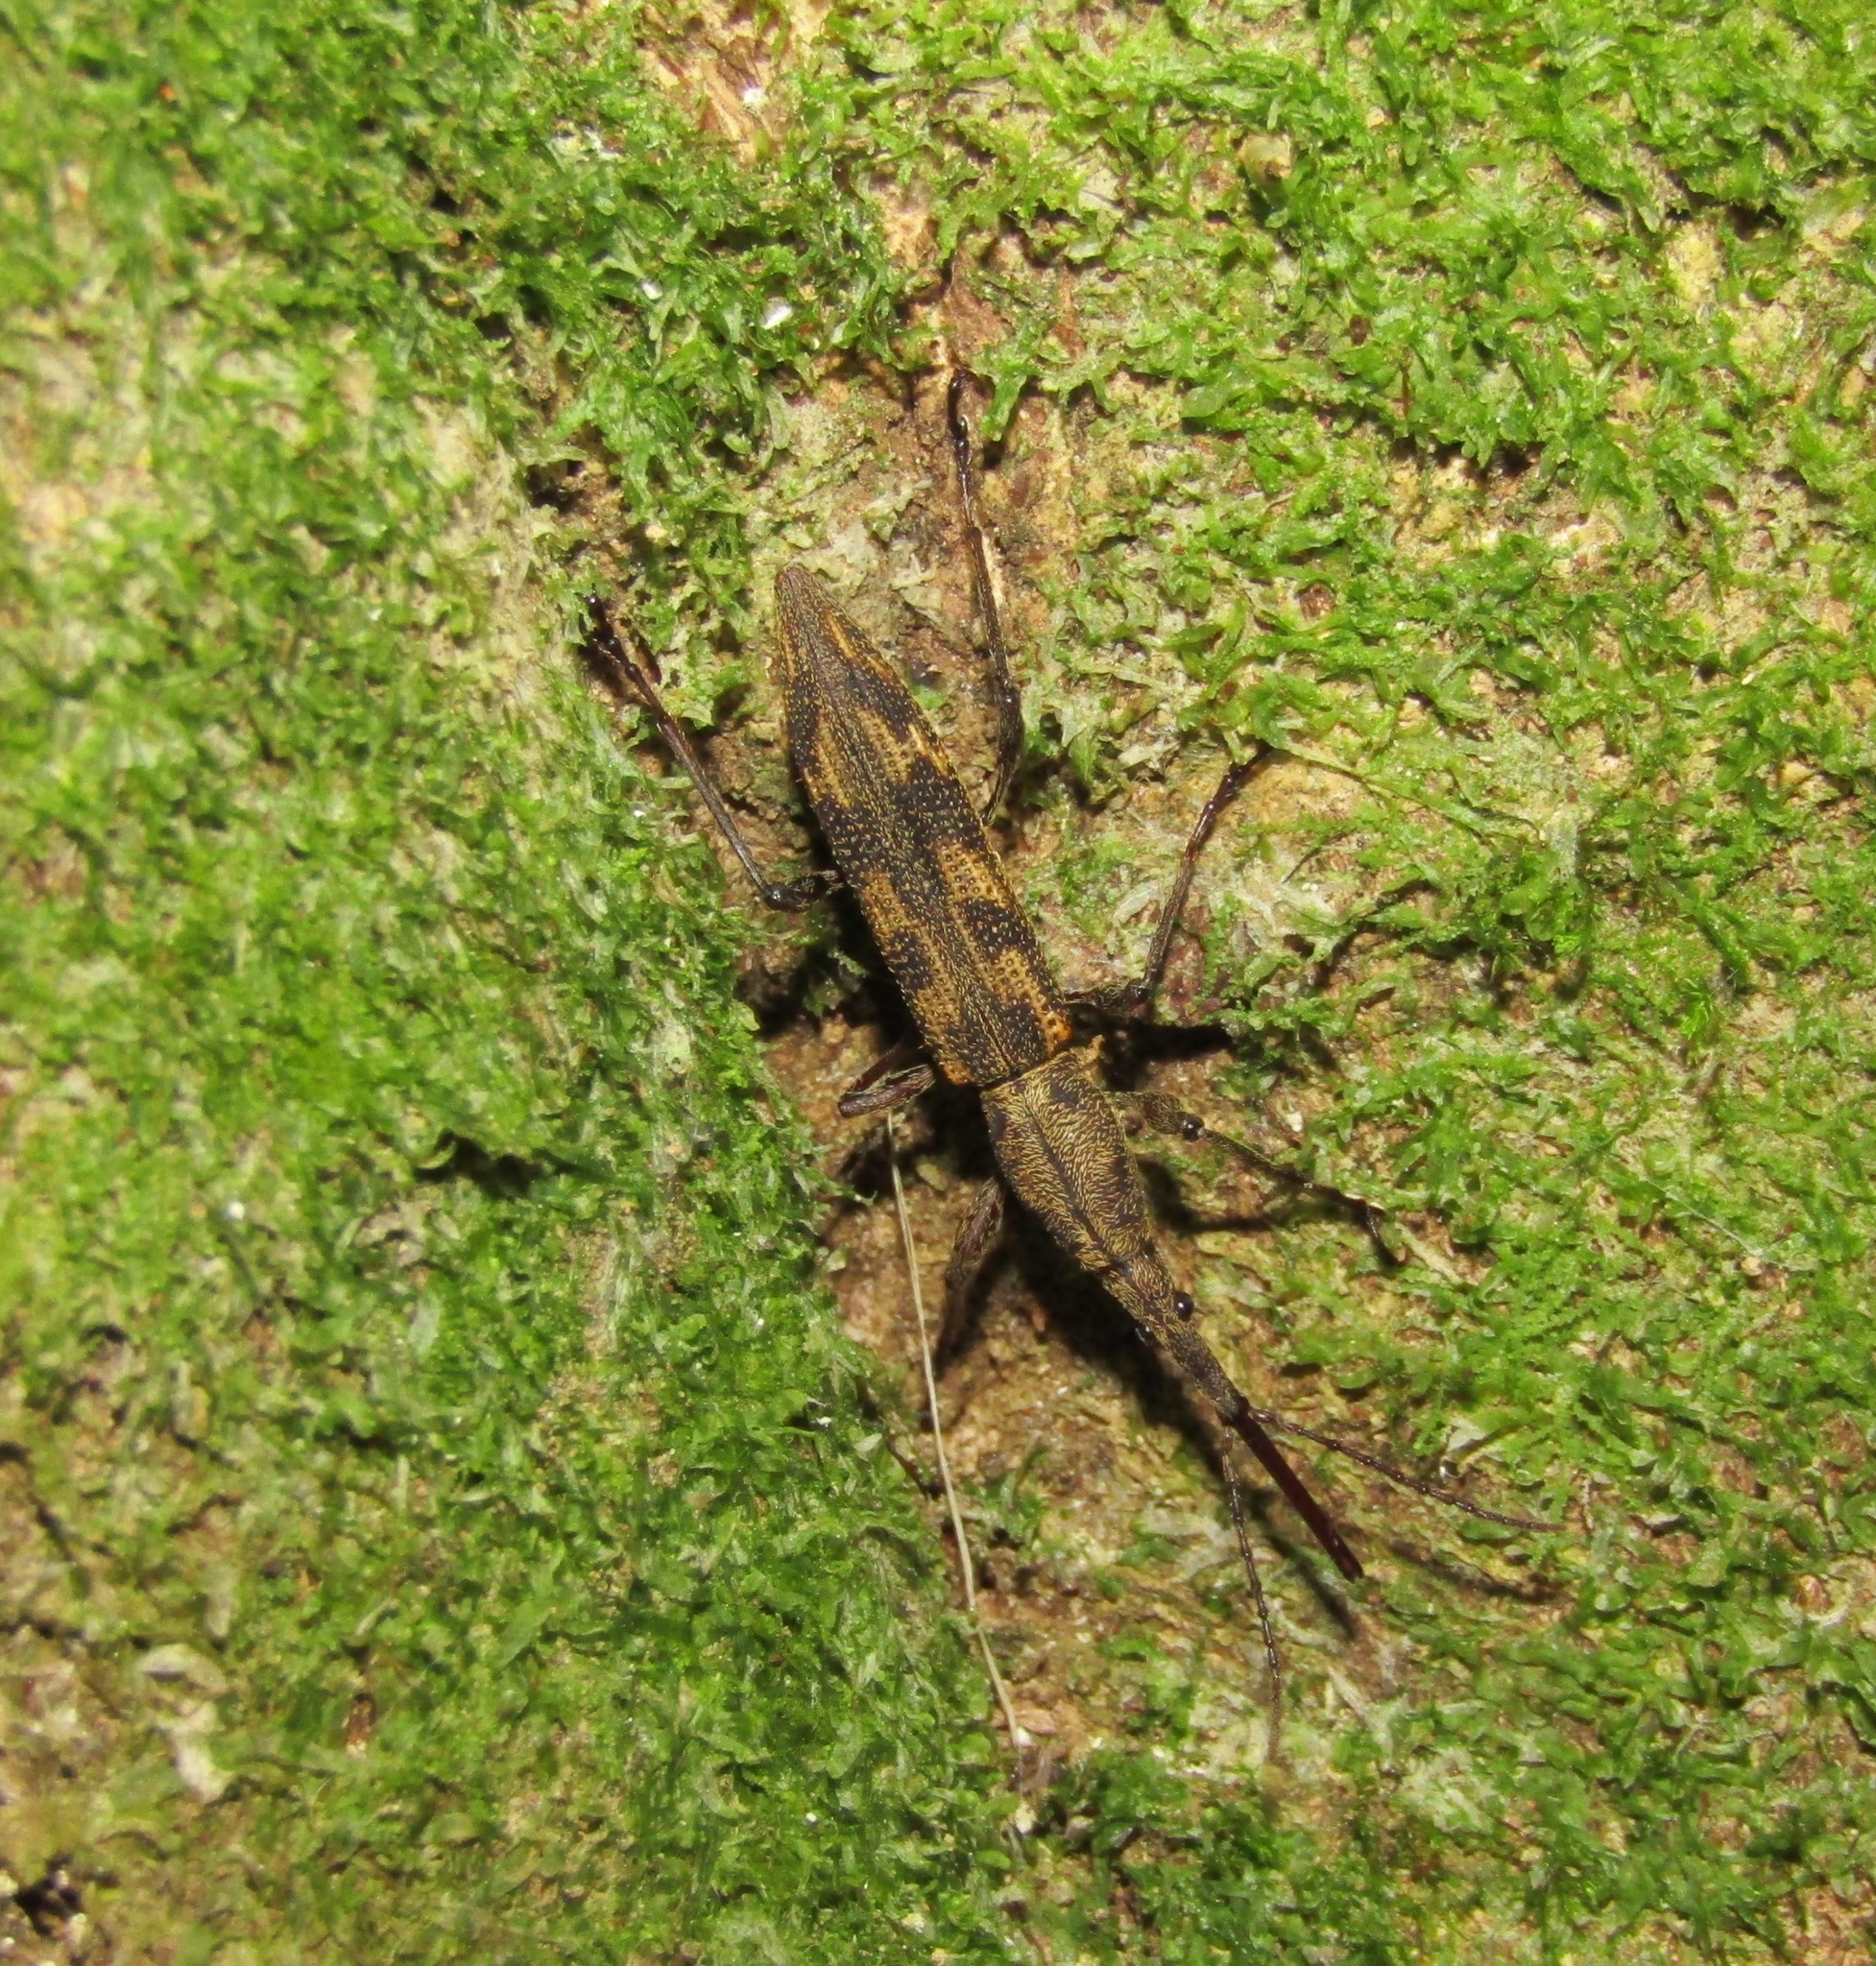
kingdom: Animalia
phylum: Arthropoda
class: Insecta
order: Coleoptera
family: Brentidae
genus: Lasiorhynchus
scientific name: Lasiorhynchus barbicornis
